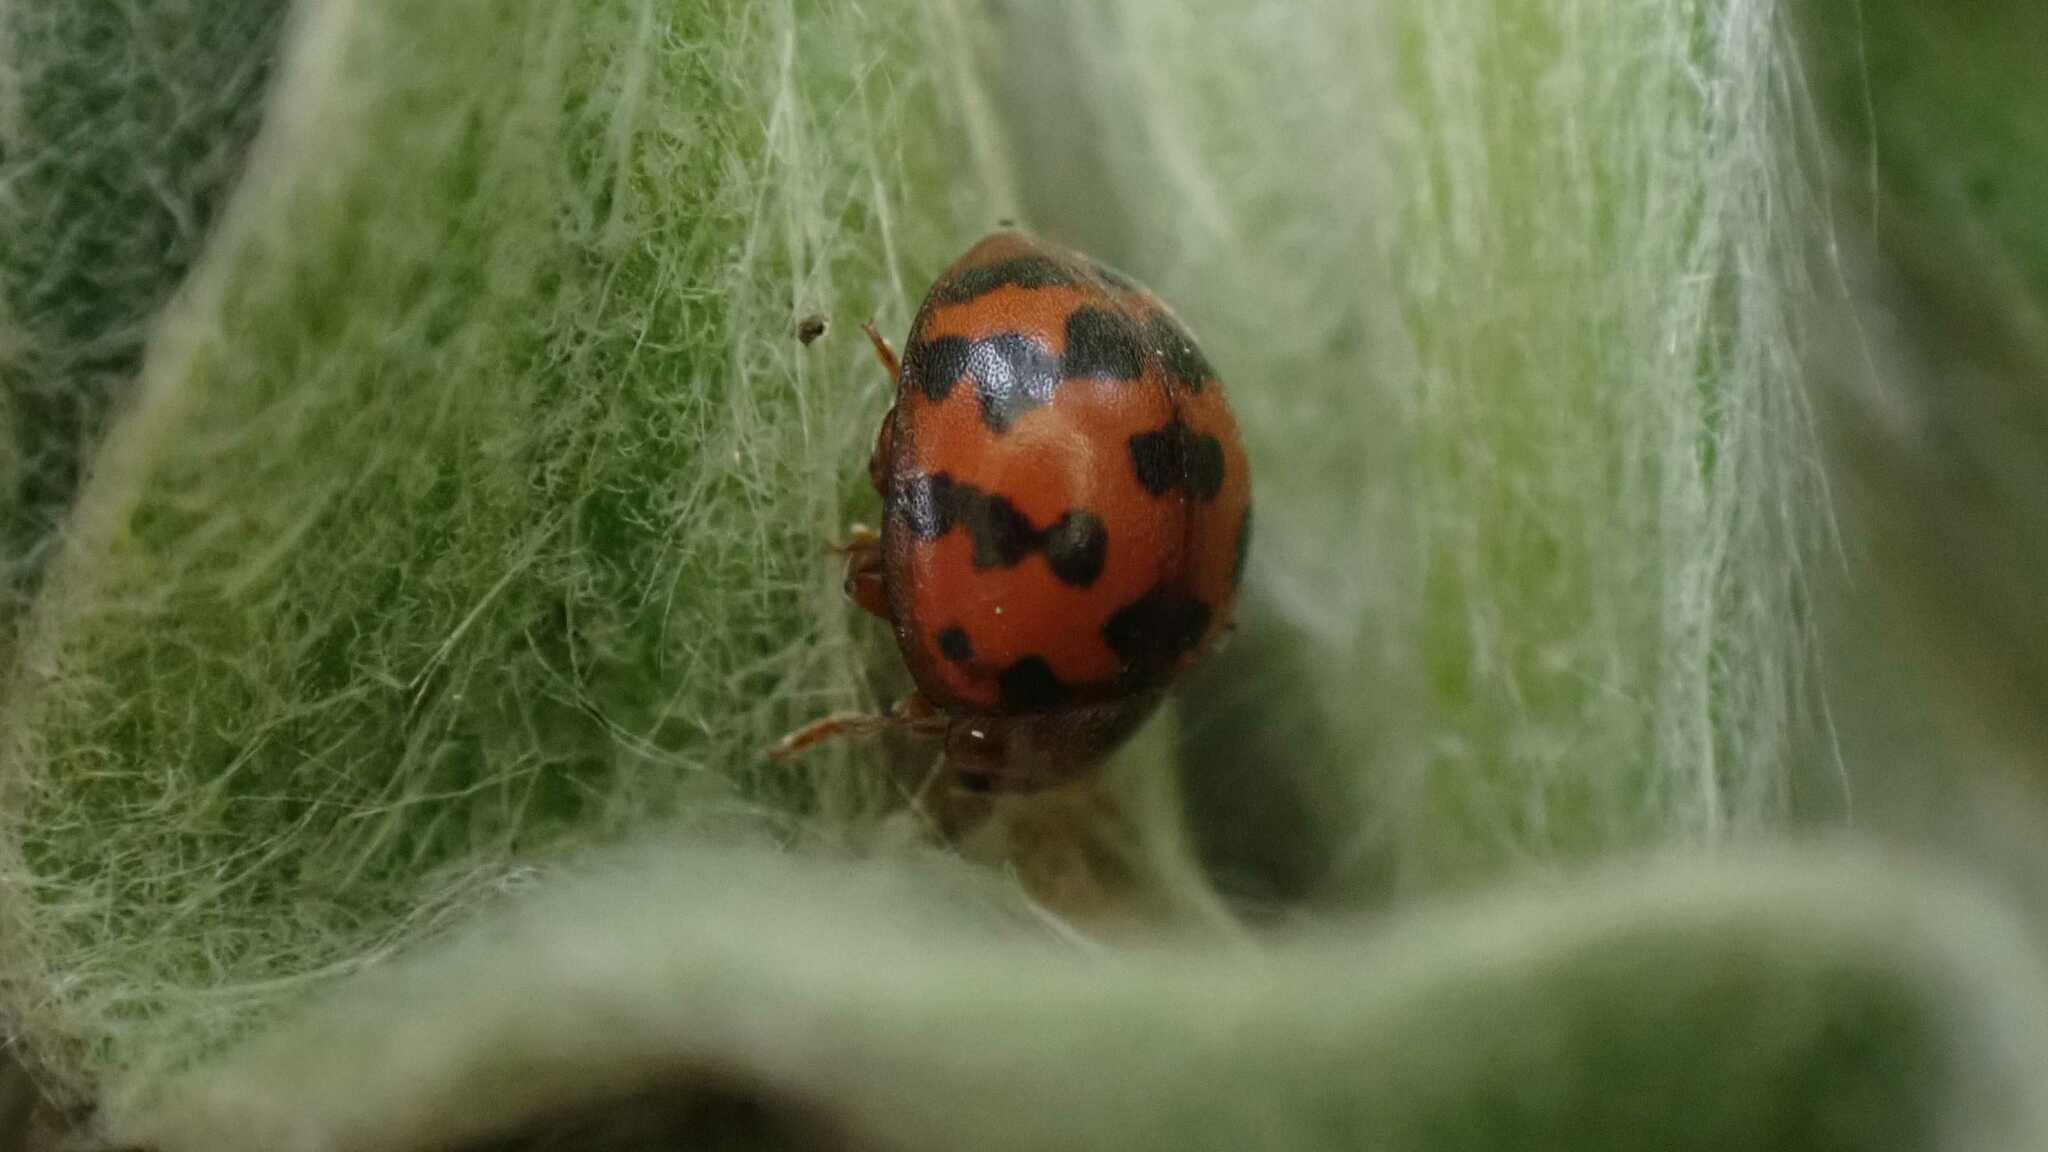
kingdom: Animalia
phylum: Arthropoda
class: Insecta
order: Coleoptera
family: Coccinellidae
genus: Subcoccinella
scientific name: Subcoccinella vigintiquatuorpunctata
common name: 24-spot ladybird
